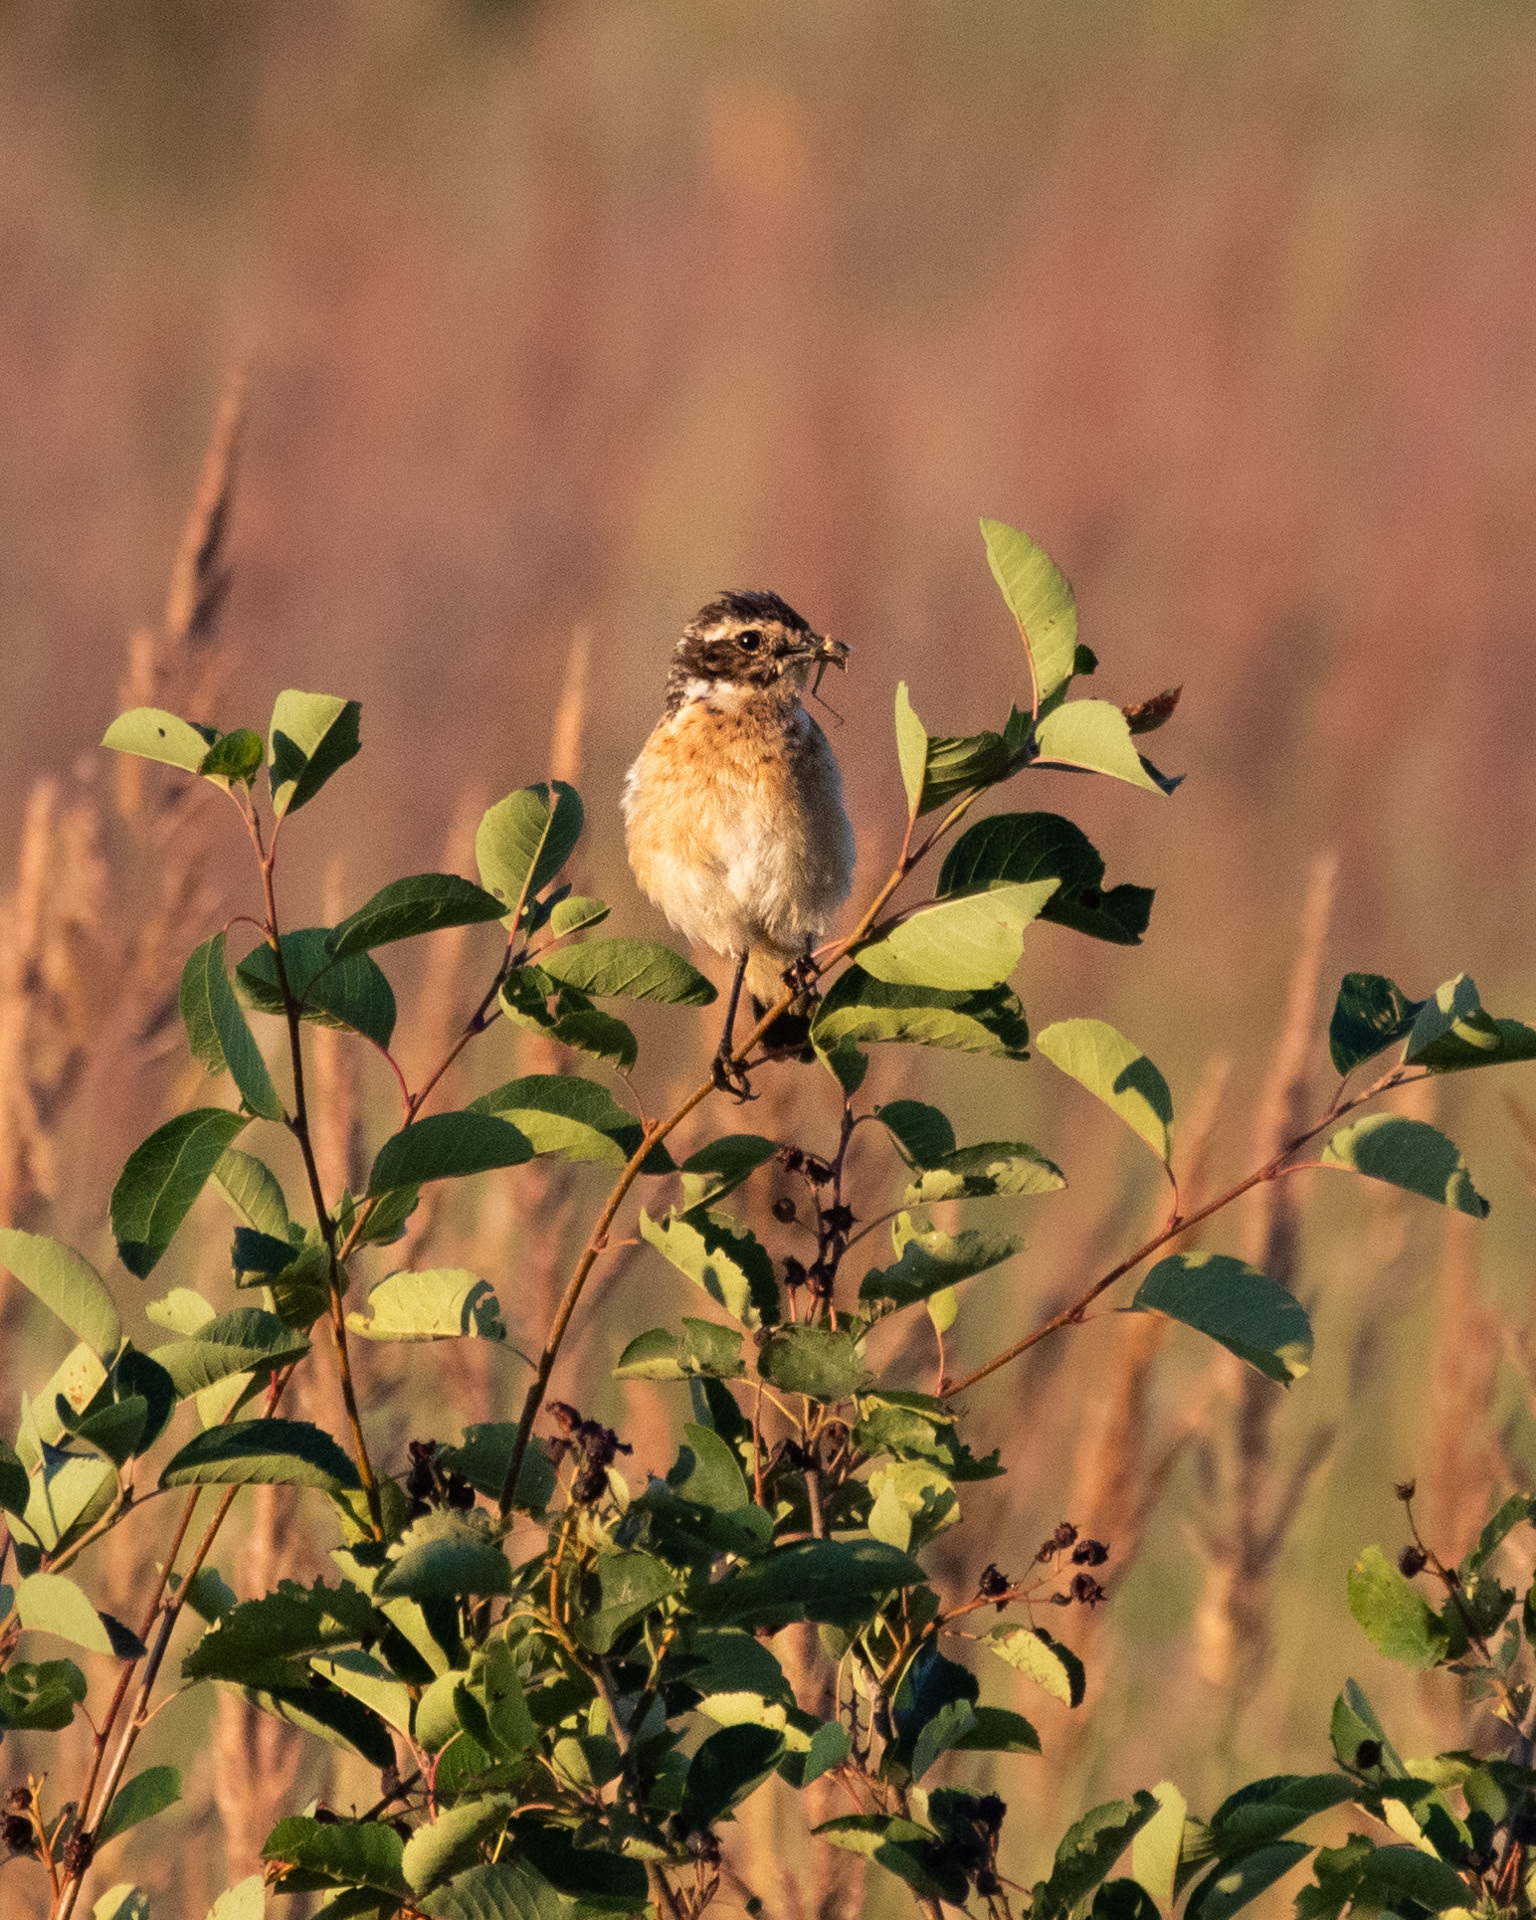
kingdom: Animalia
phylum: Chordata
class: Aves
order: Passeriformes
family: Muscicapidae
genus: Saxicola
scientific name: Saxicola rubetra
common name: Whinchat
